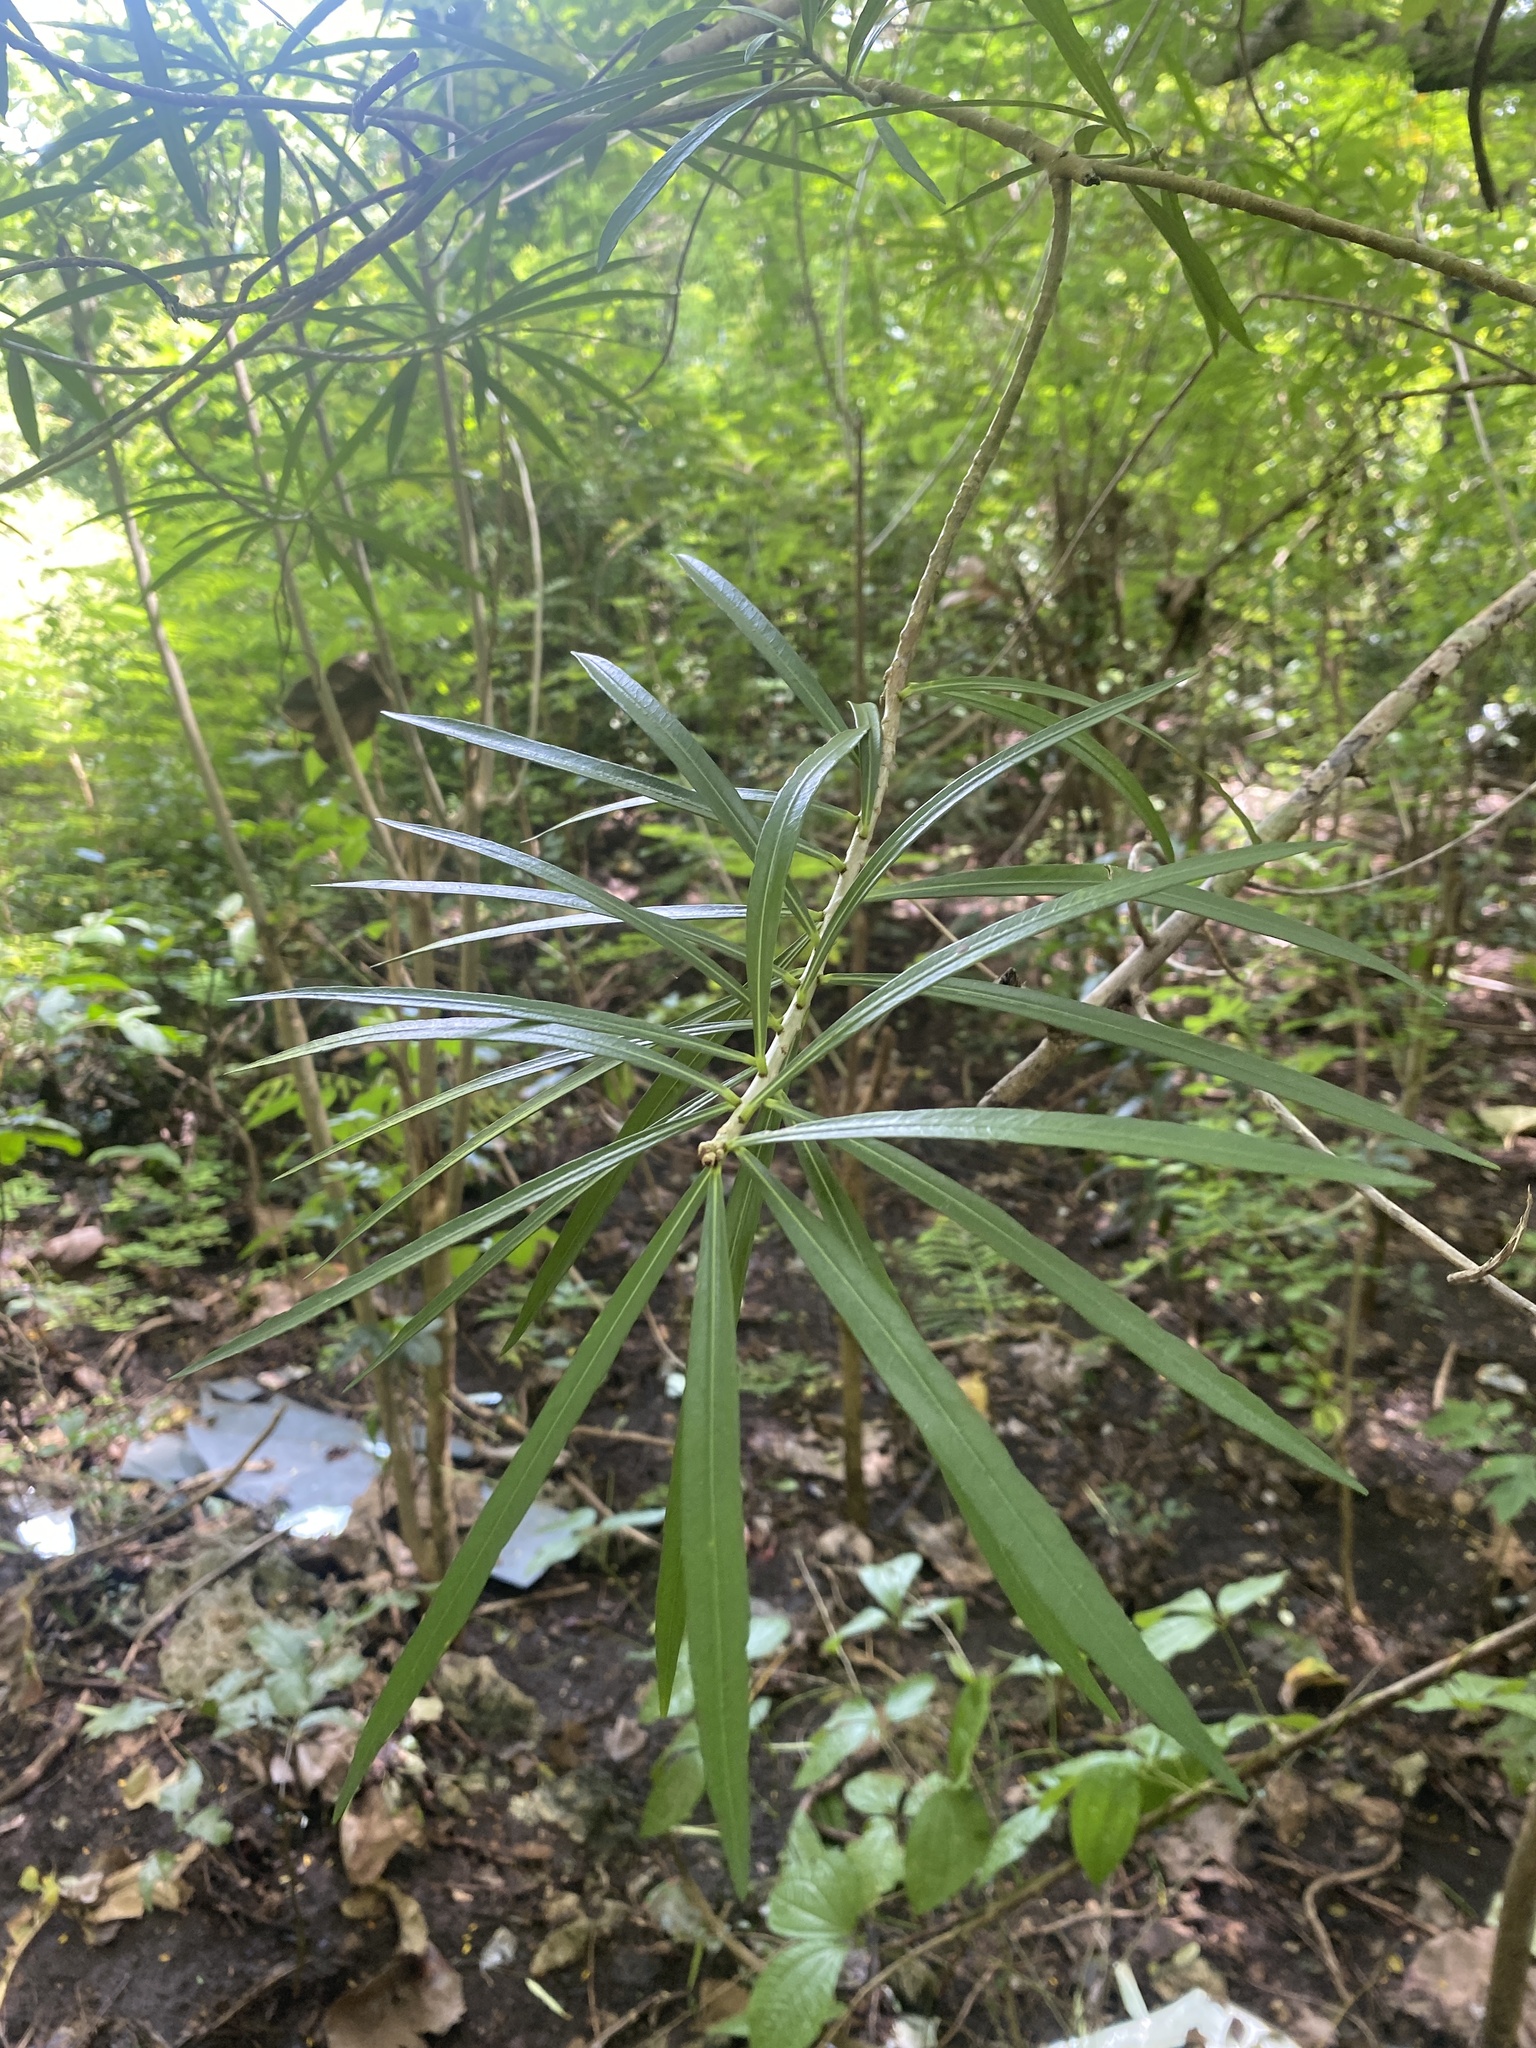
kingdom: Plantae
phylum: Tracheophyta
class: Magnoliopsida
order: Gentianales
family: Apocynaceae
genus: Cascabela
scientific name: Cascabela thevetia
